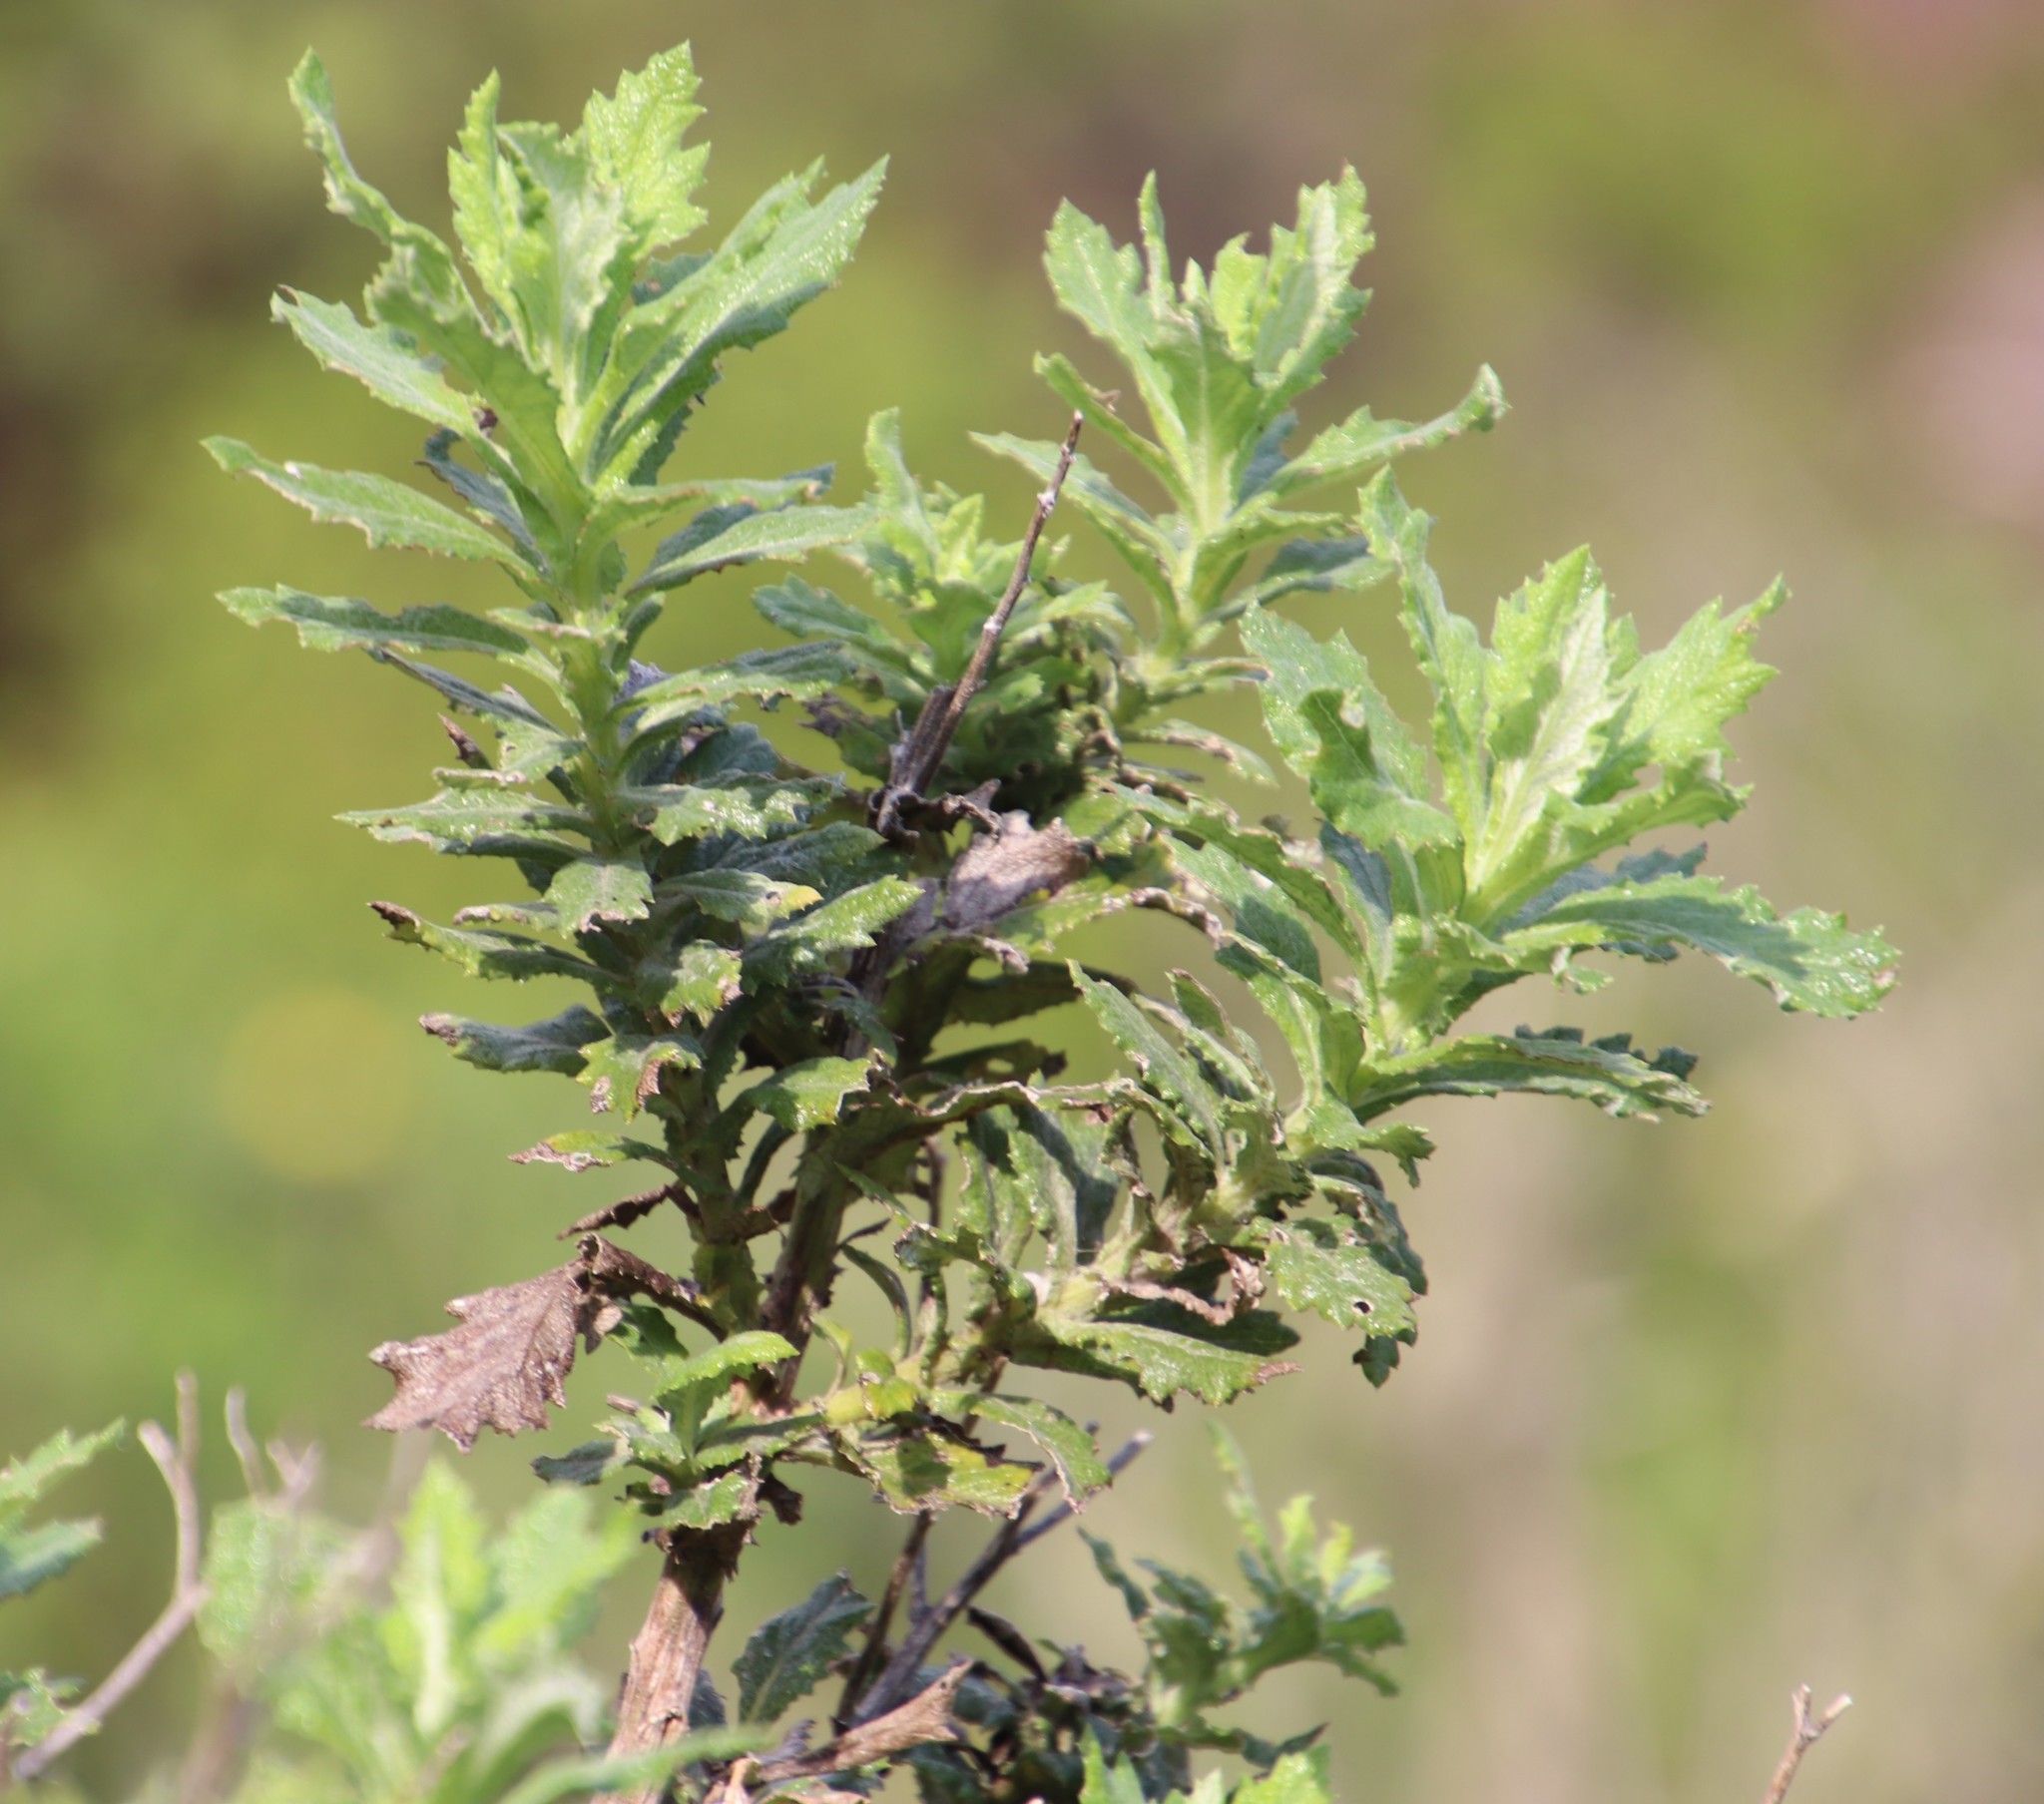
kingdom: Plantae
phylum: Tracheophyta
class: Magnoliopsida
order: Asterales
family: Asteraceae
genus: Senecio
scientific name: Senecio rigidus
